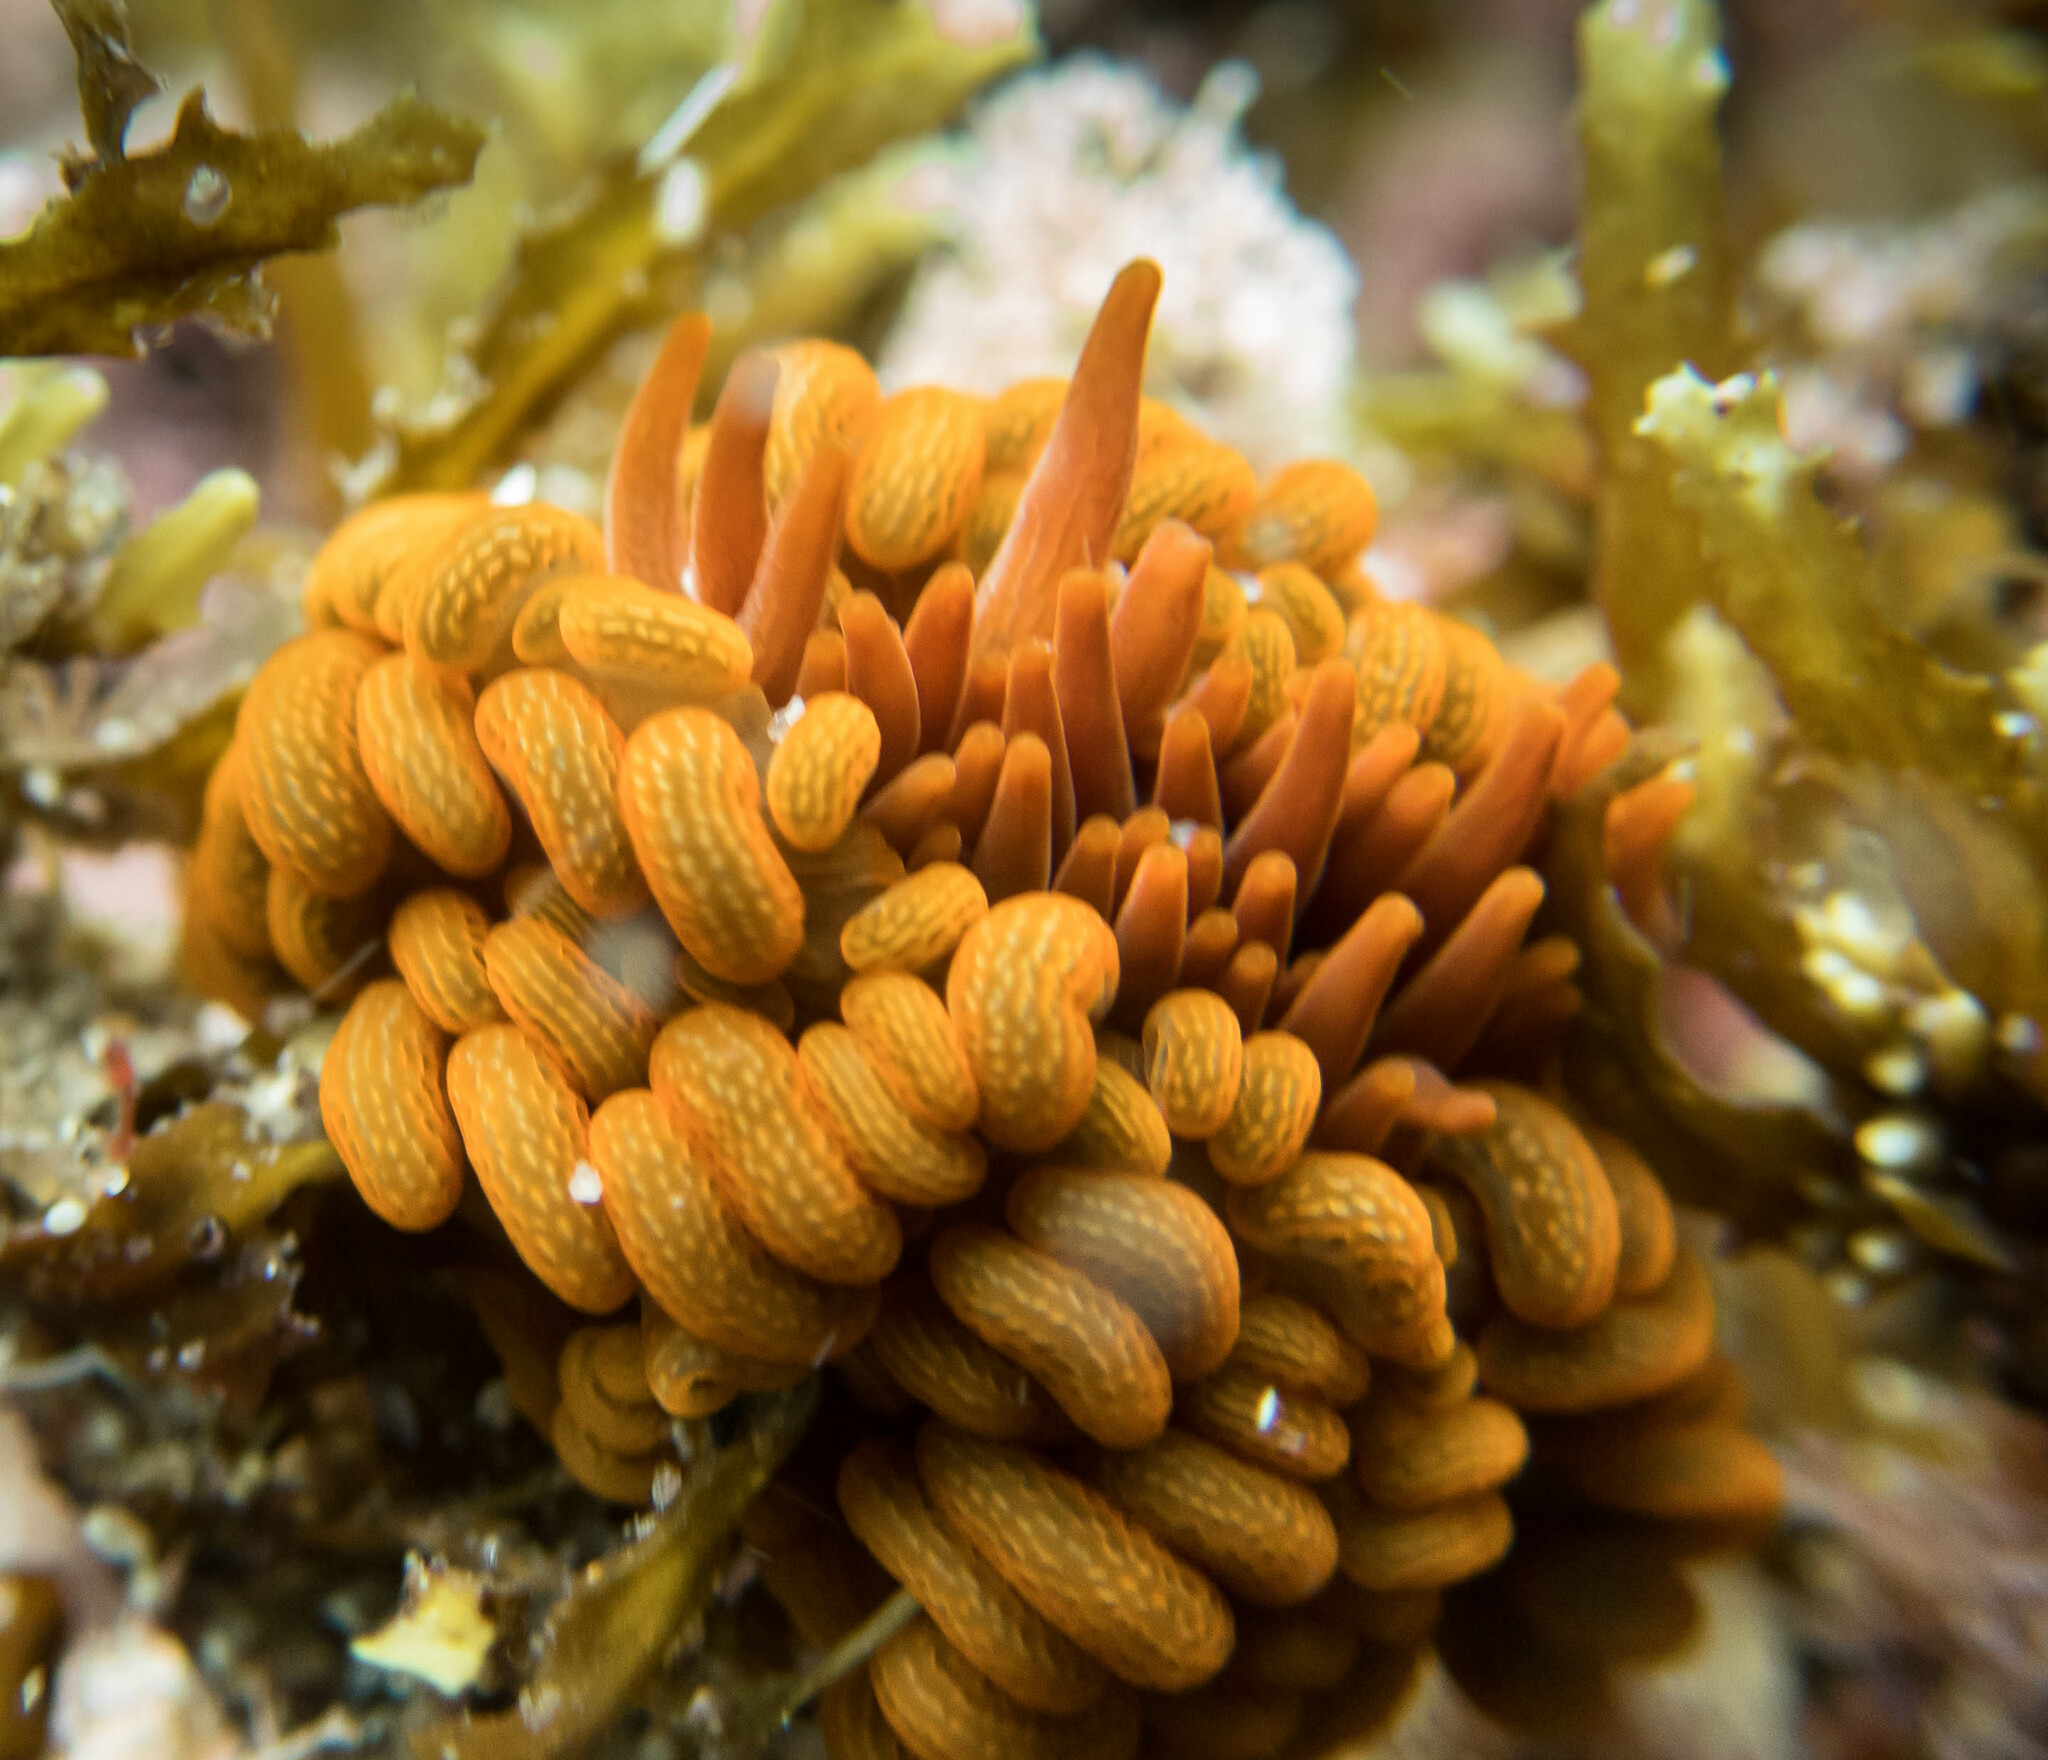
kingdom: Animalia
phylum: Cnidaria
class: Anthozoa
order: Actiniaria
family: Actiniidae
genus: Phlyctenactis
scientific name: Phlyctenactis tuberculosa
